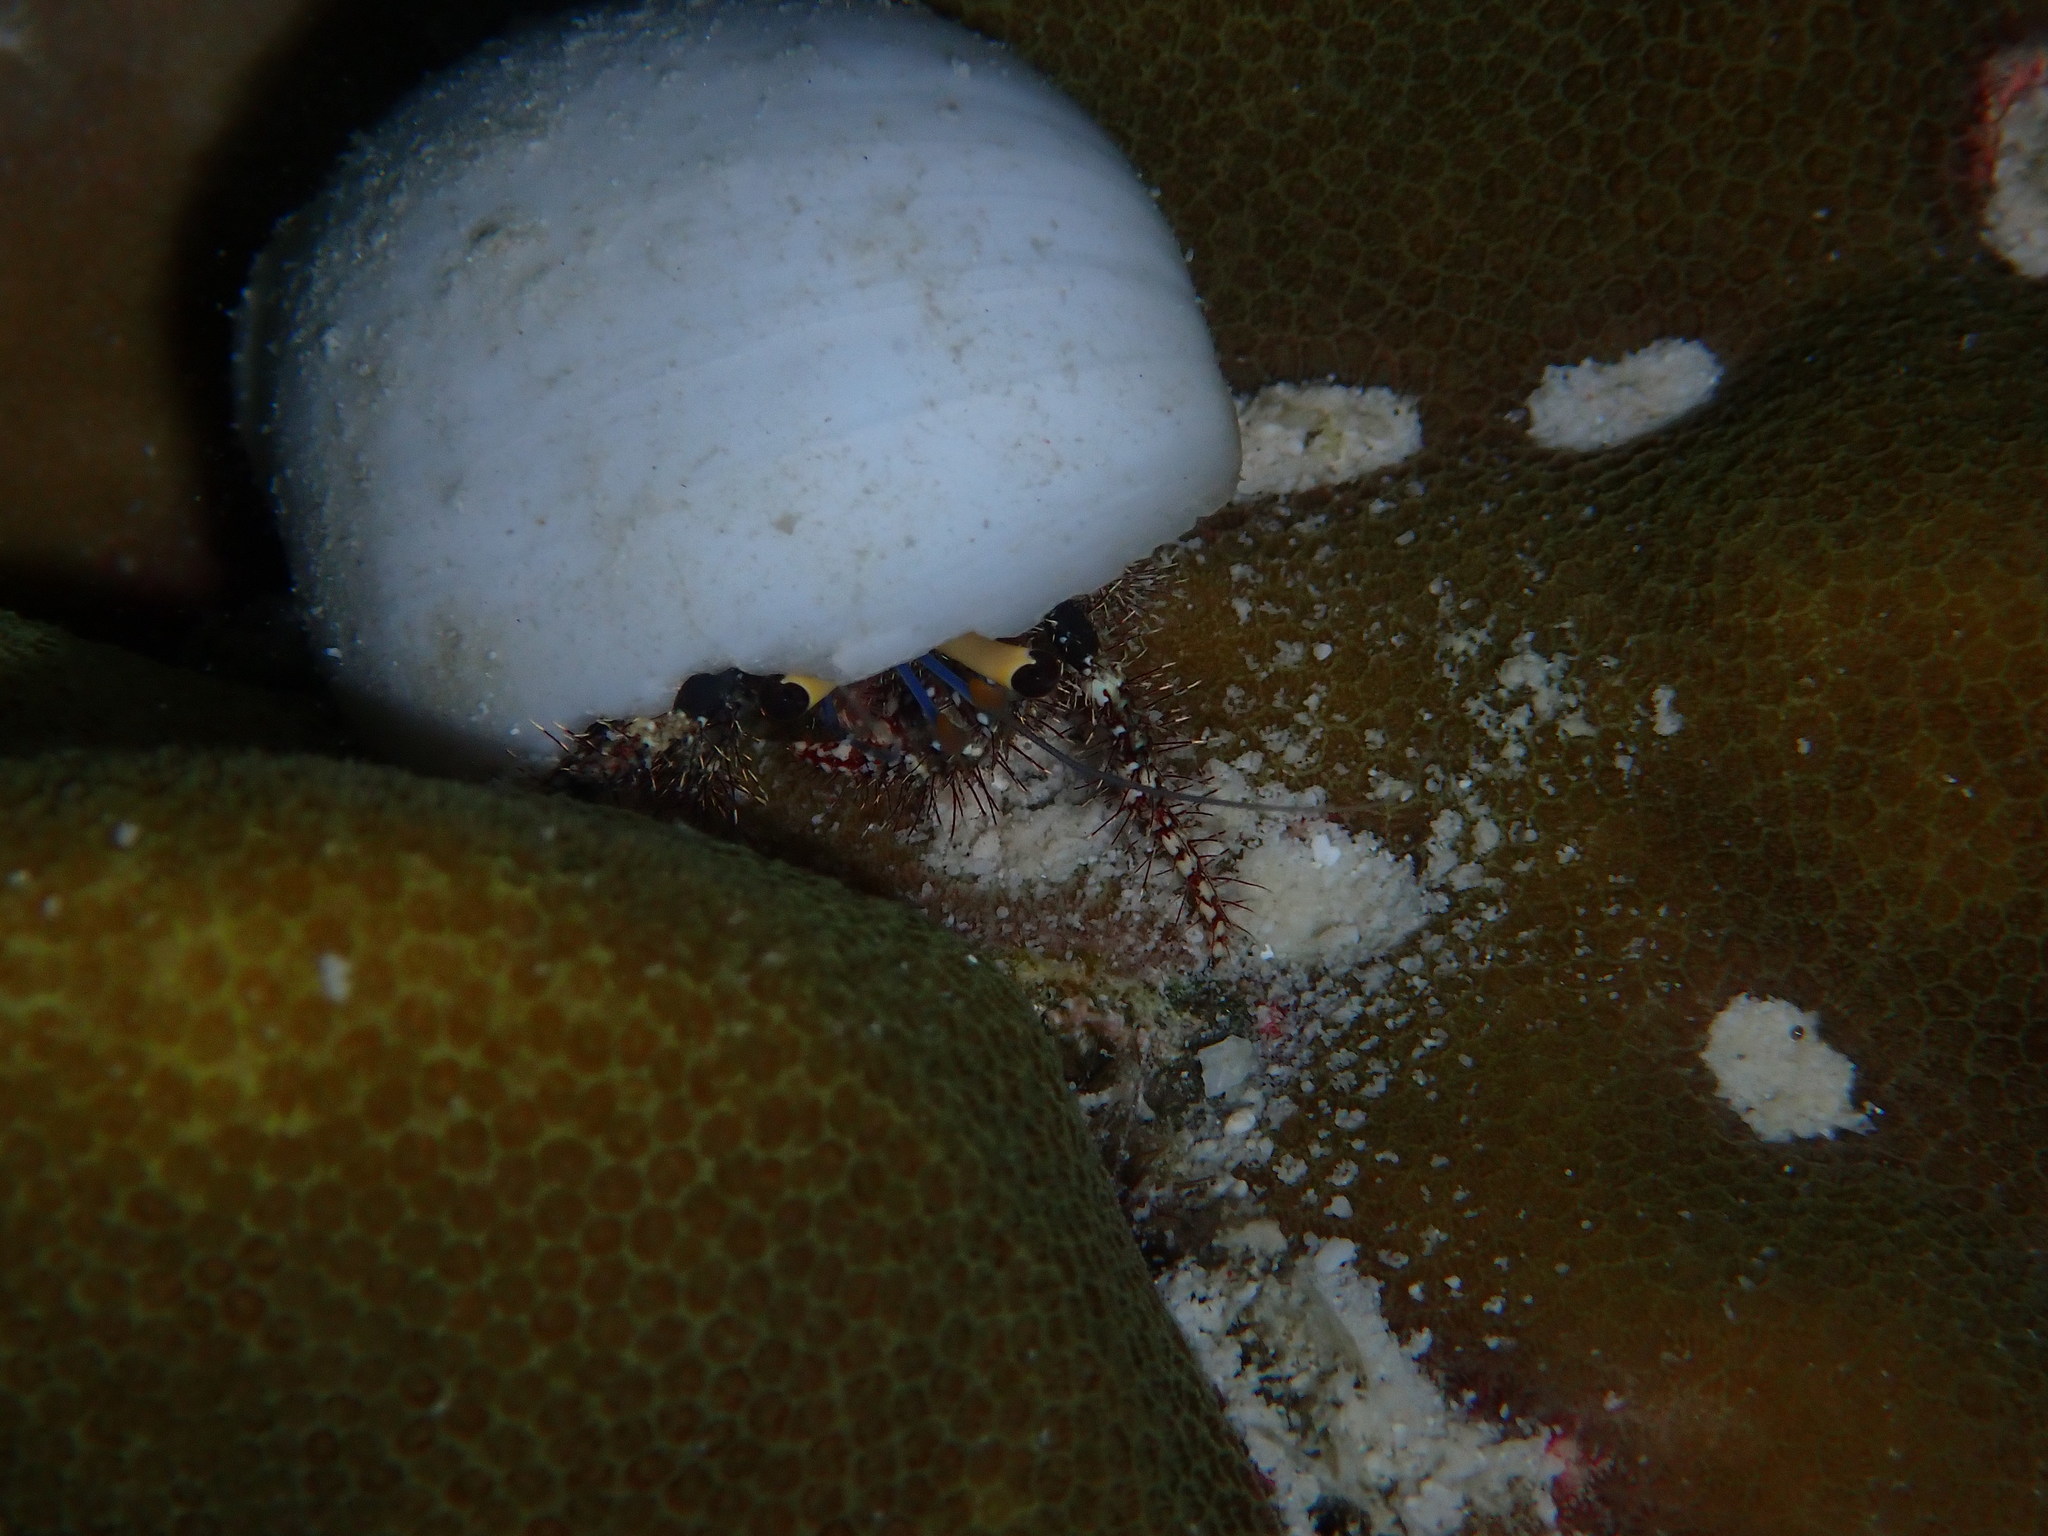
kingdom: Animalia
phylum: Arthropoda
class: Malacostraca
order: Decapoda
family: Diogenidae
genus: Dardanus
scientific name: Dardanus lagopodes
